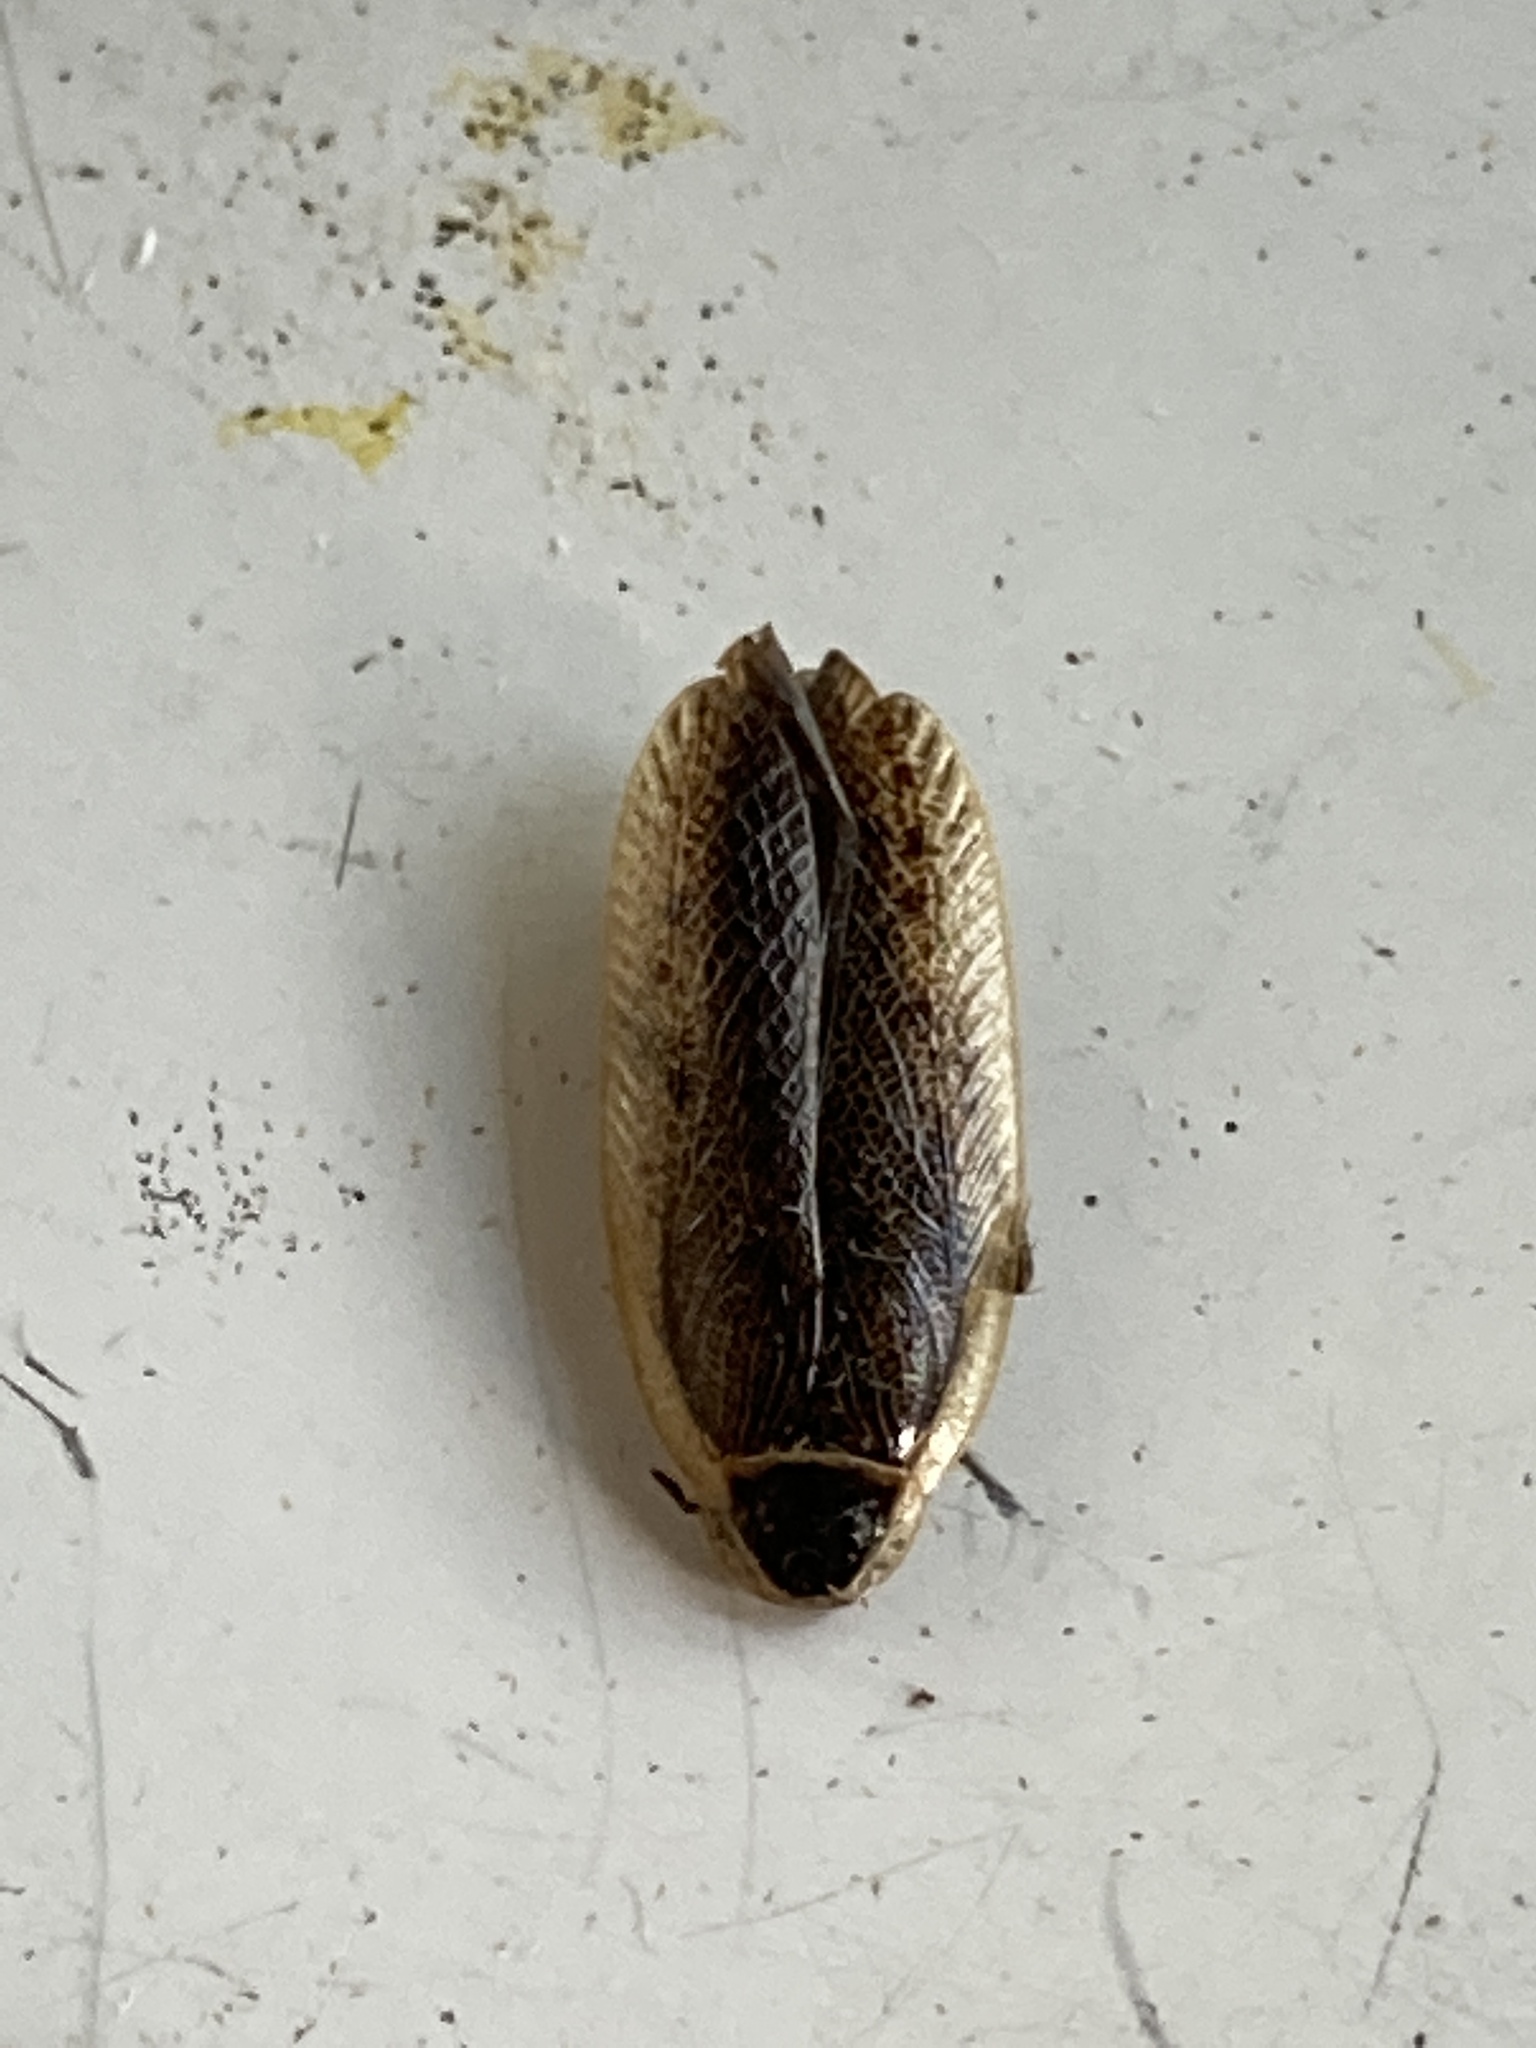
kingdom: Animalia
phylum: Arthropoda
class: Insecta
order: Blattodea
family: Ectobiidae
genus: Ectobius
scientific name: Ectobius sylvestris
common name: Forest cockroach
